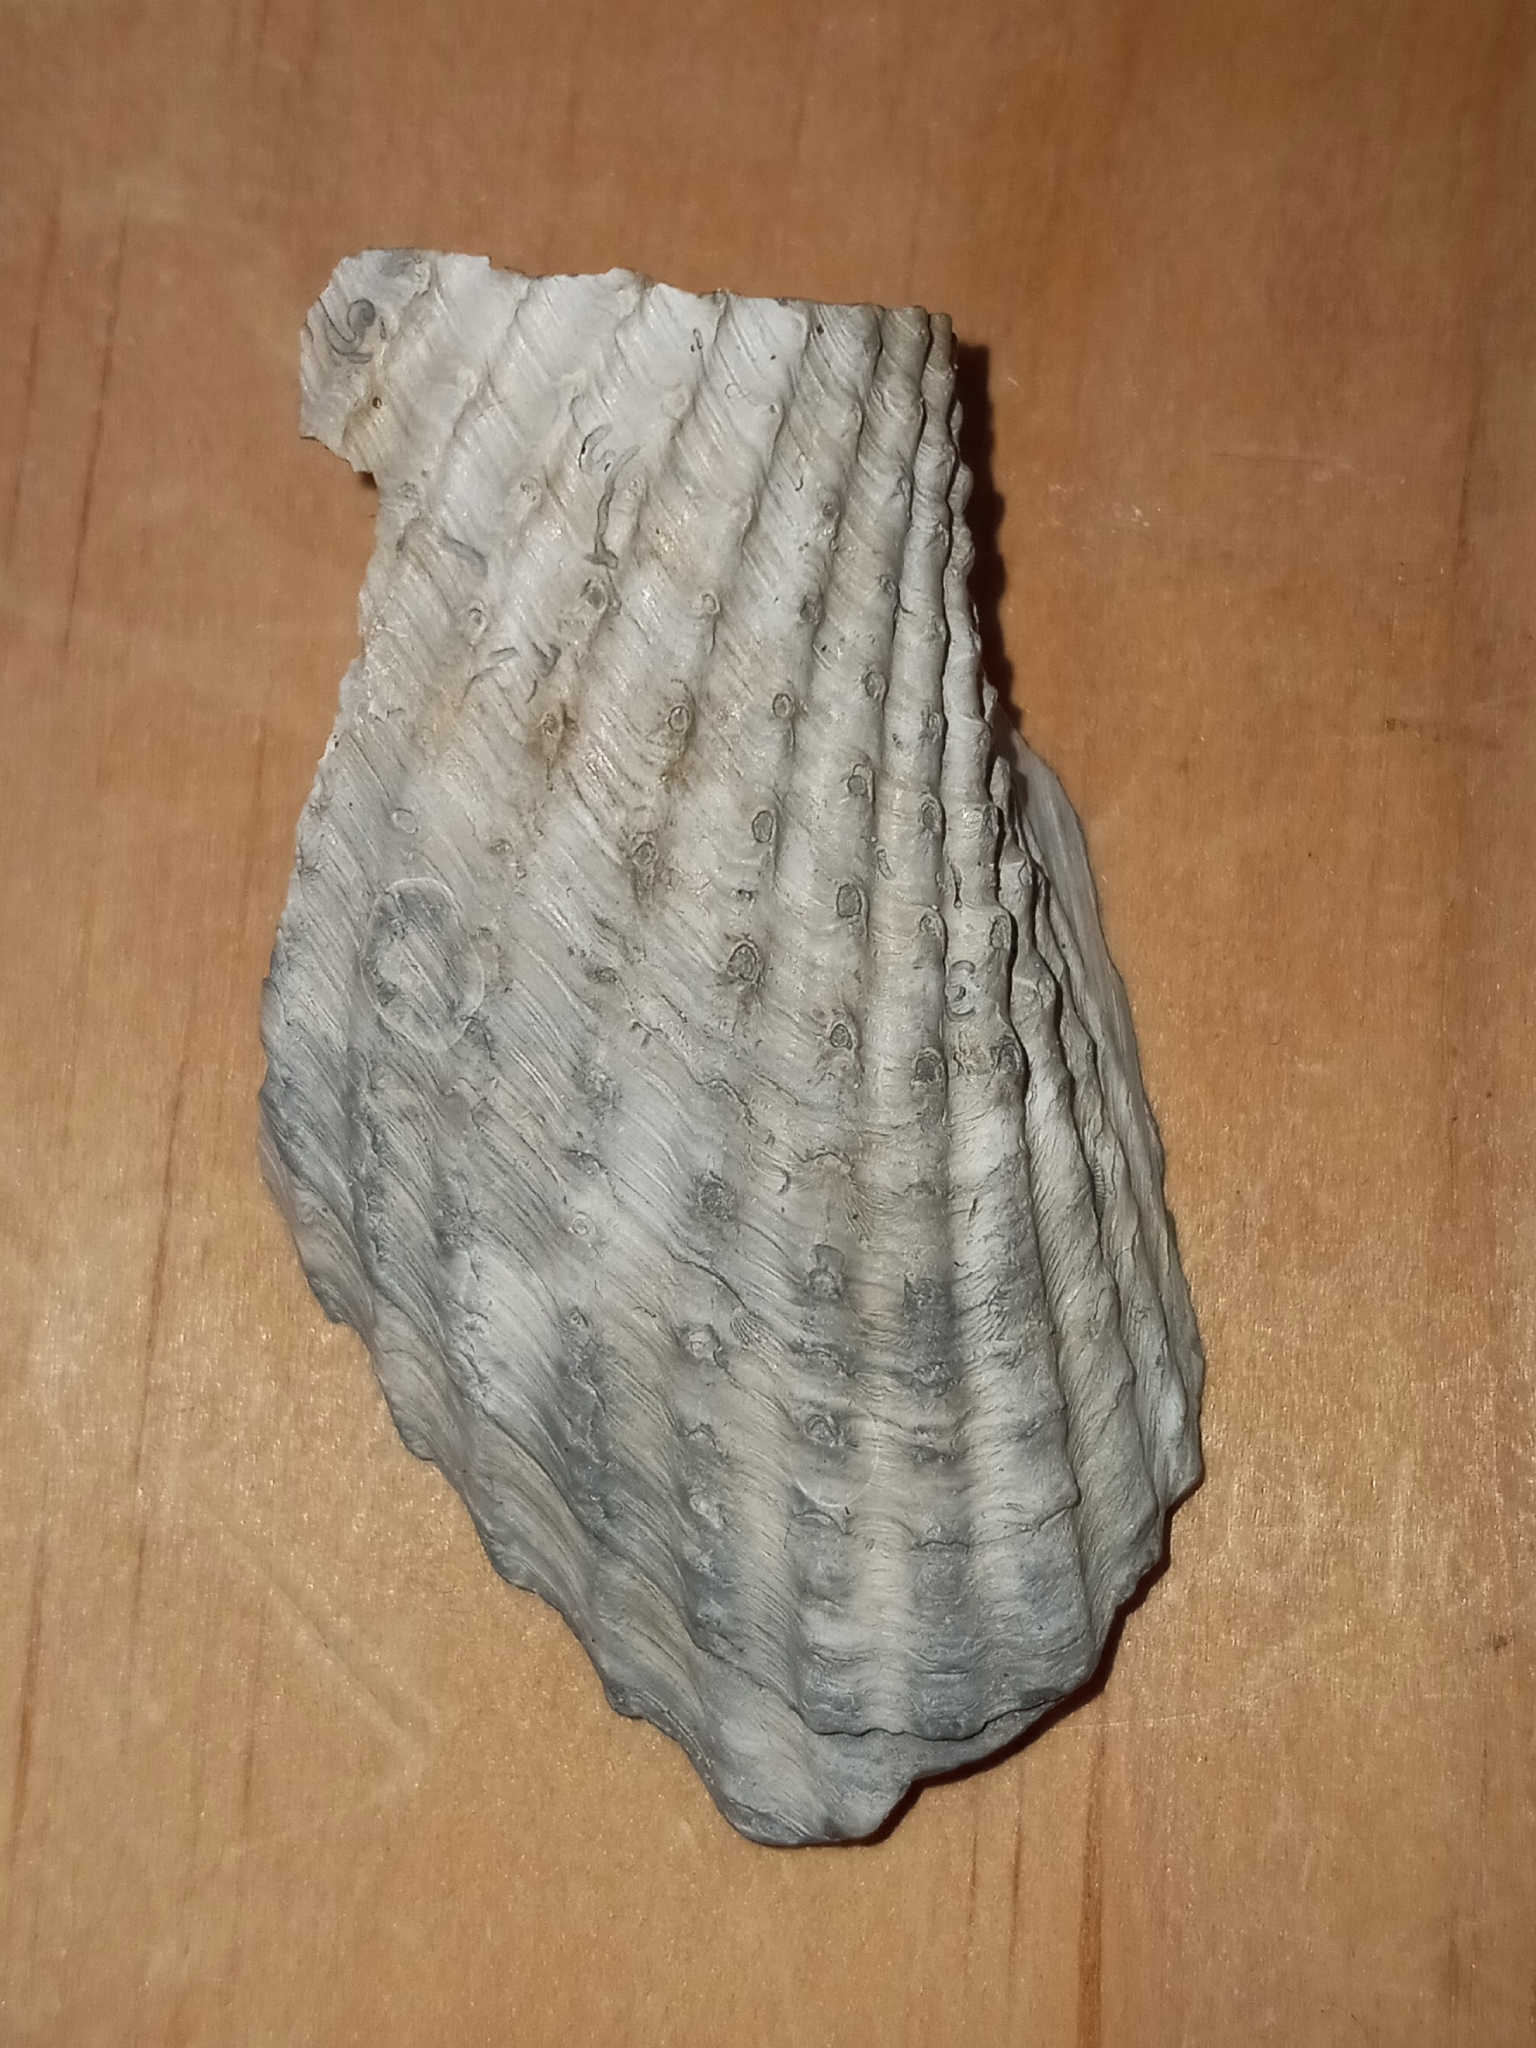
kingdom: Animalia
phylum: Mollusca
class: Bivalvia
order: Myida
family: Pholadidae
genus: Cyrtopleura
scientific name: Cyrtopleura costata
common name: Angel wing
